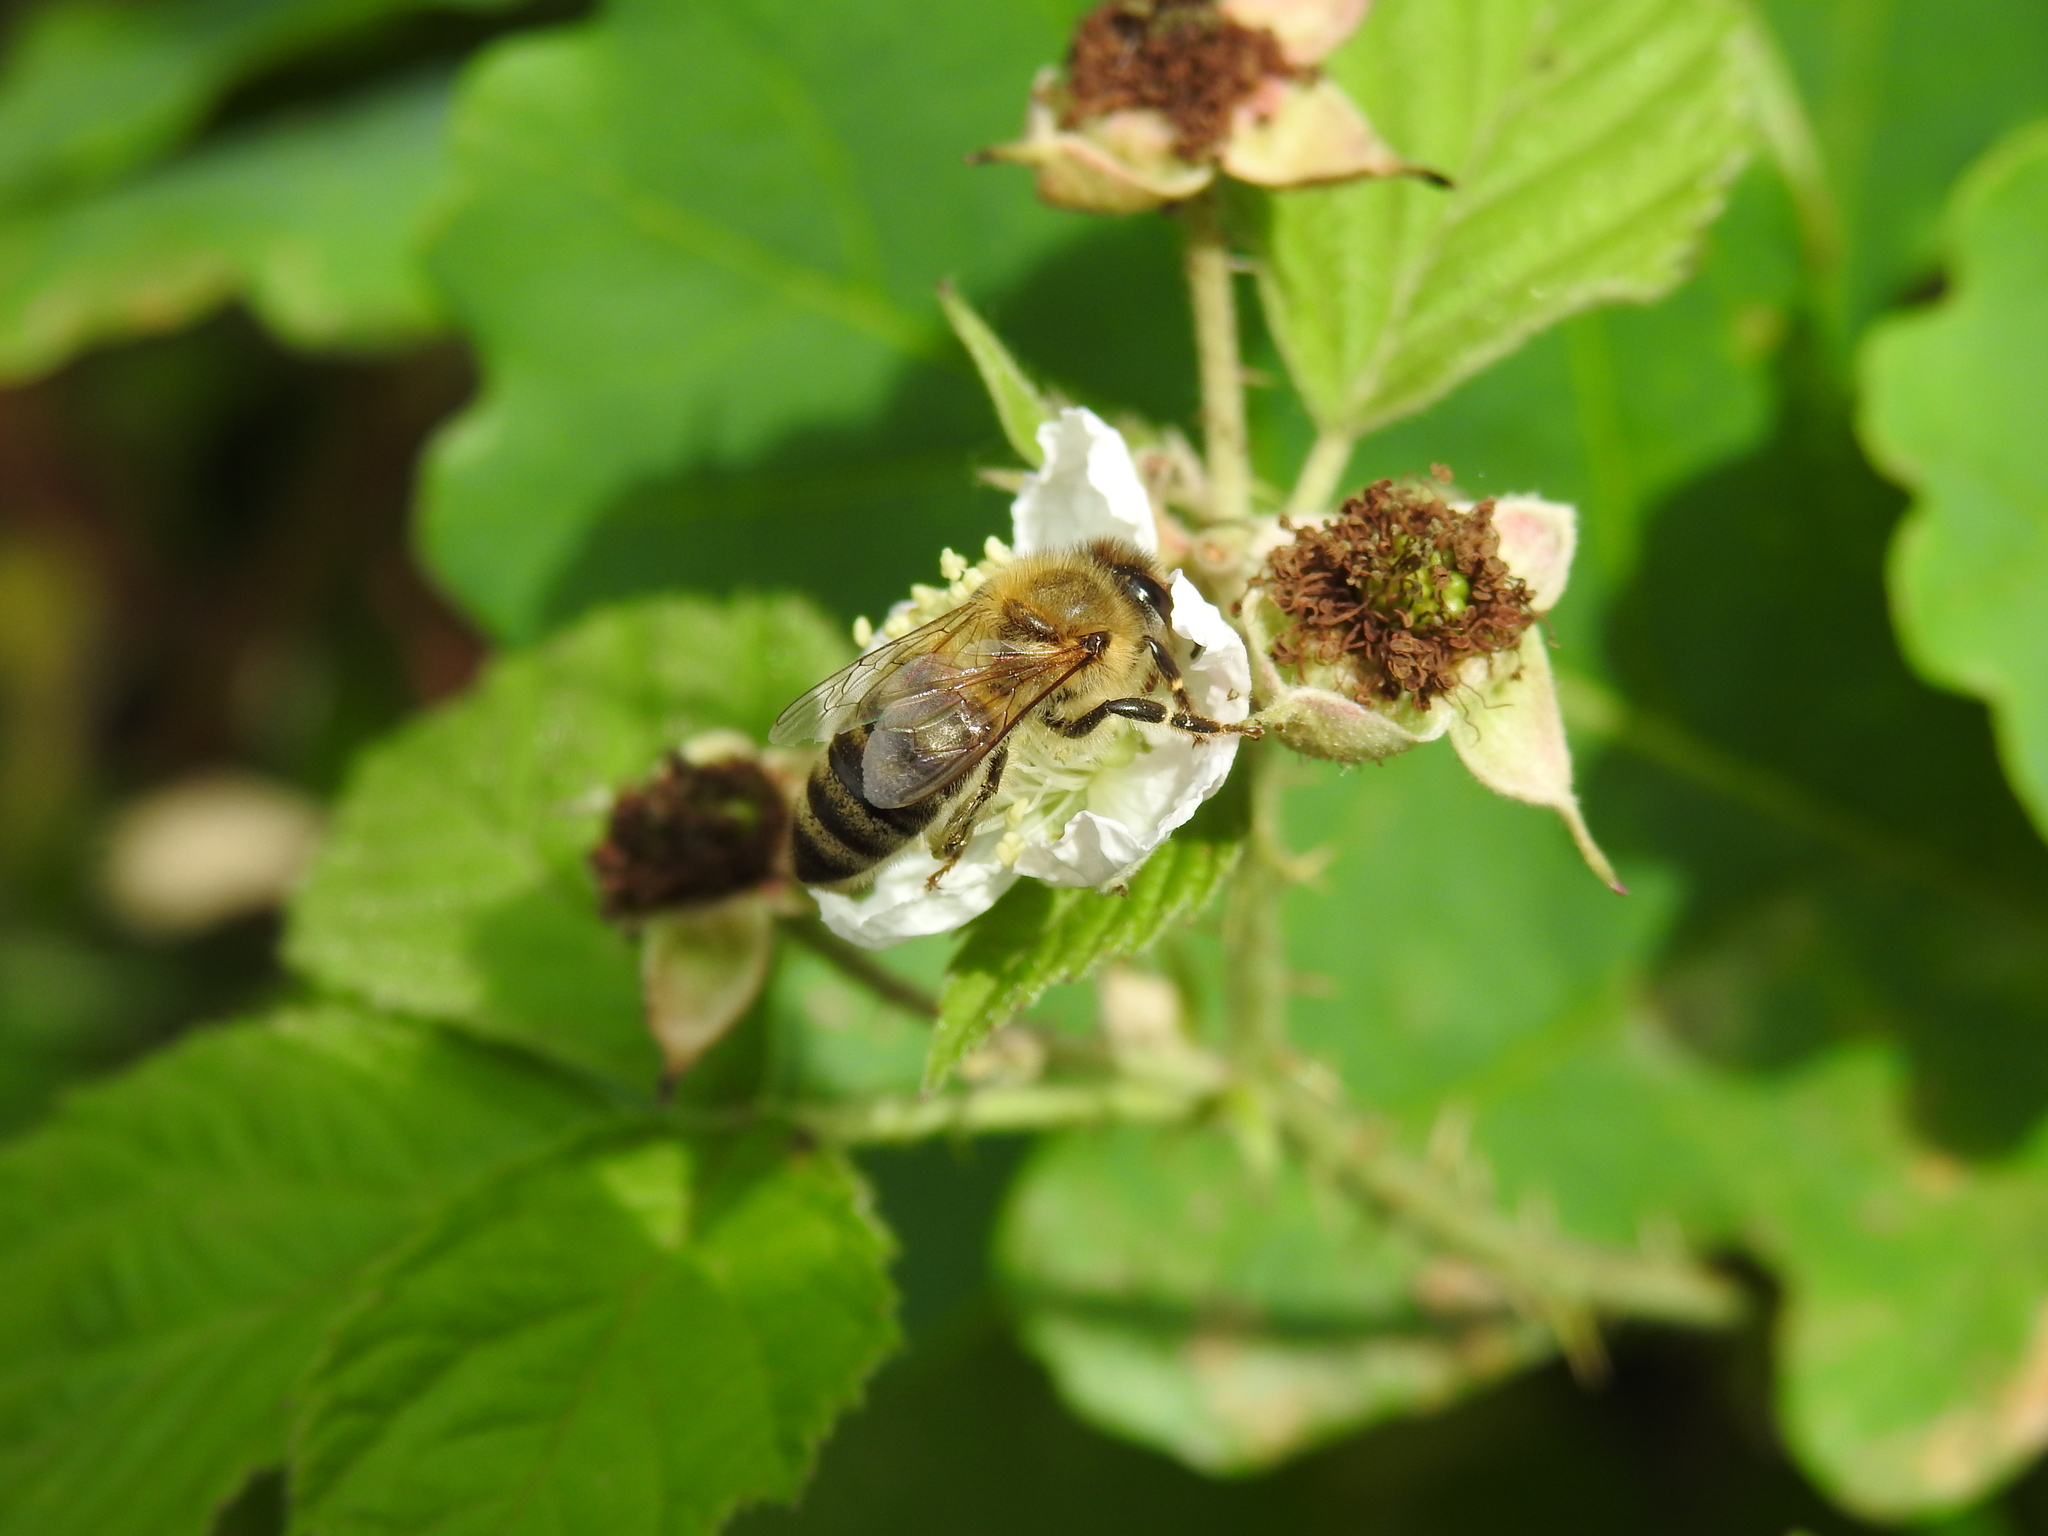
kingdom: Animalia
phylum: Arthropoda
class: Insecta
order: Hymenoptera
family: Apidae
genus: Apis
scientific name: Apis mellifera
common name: Honey bee
